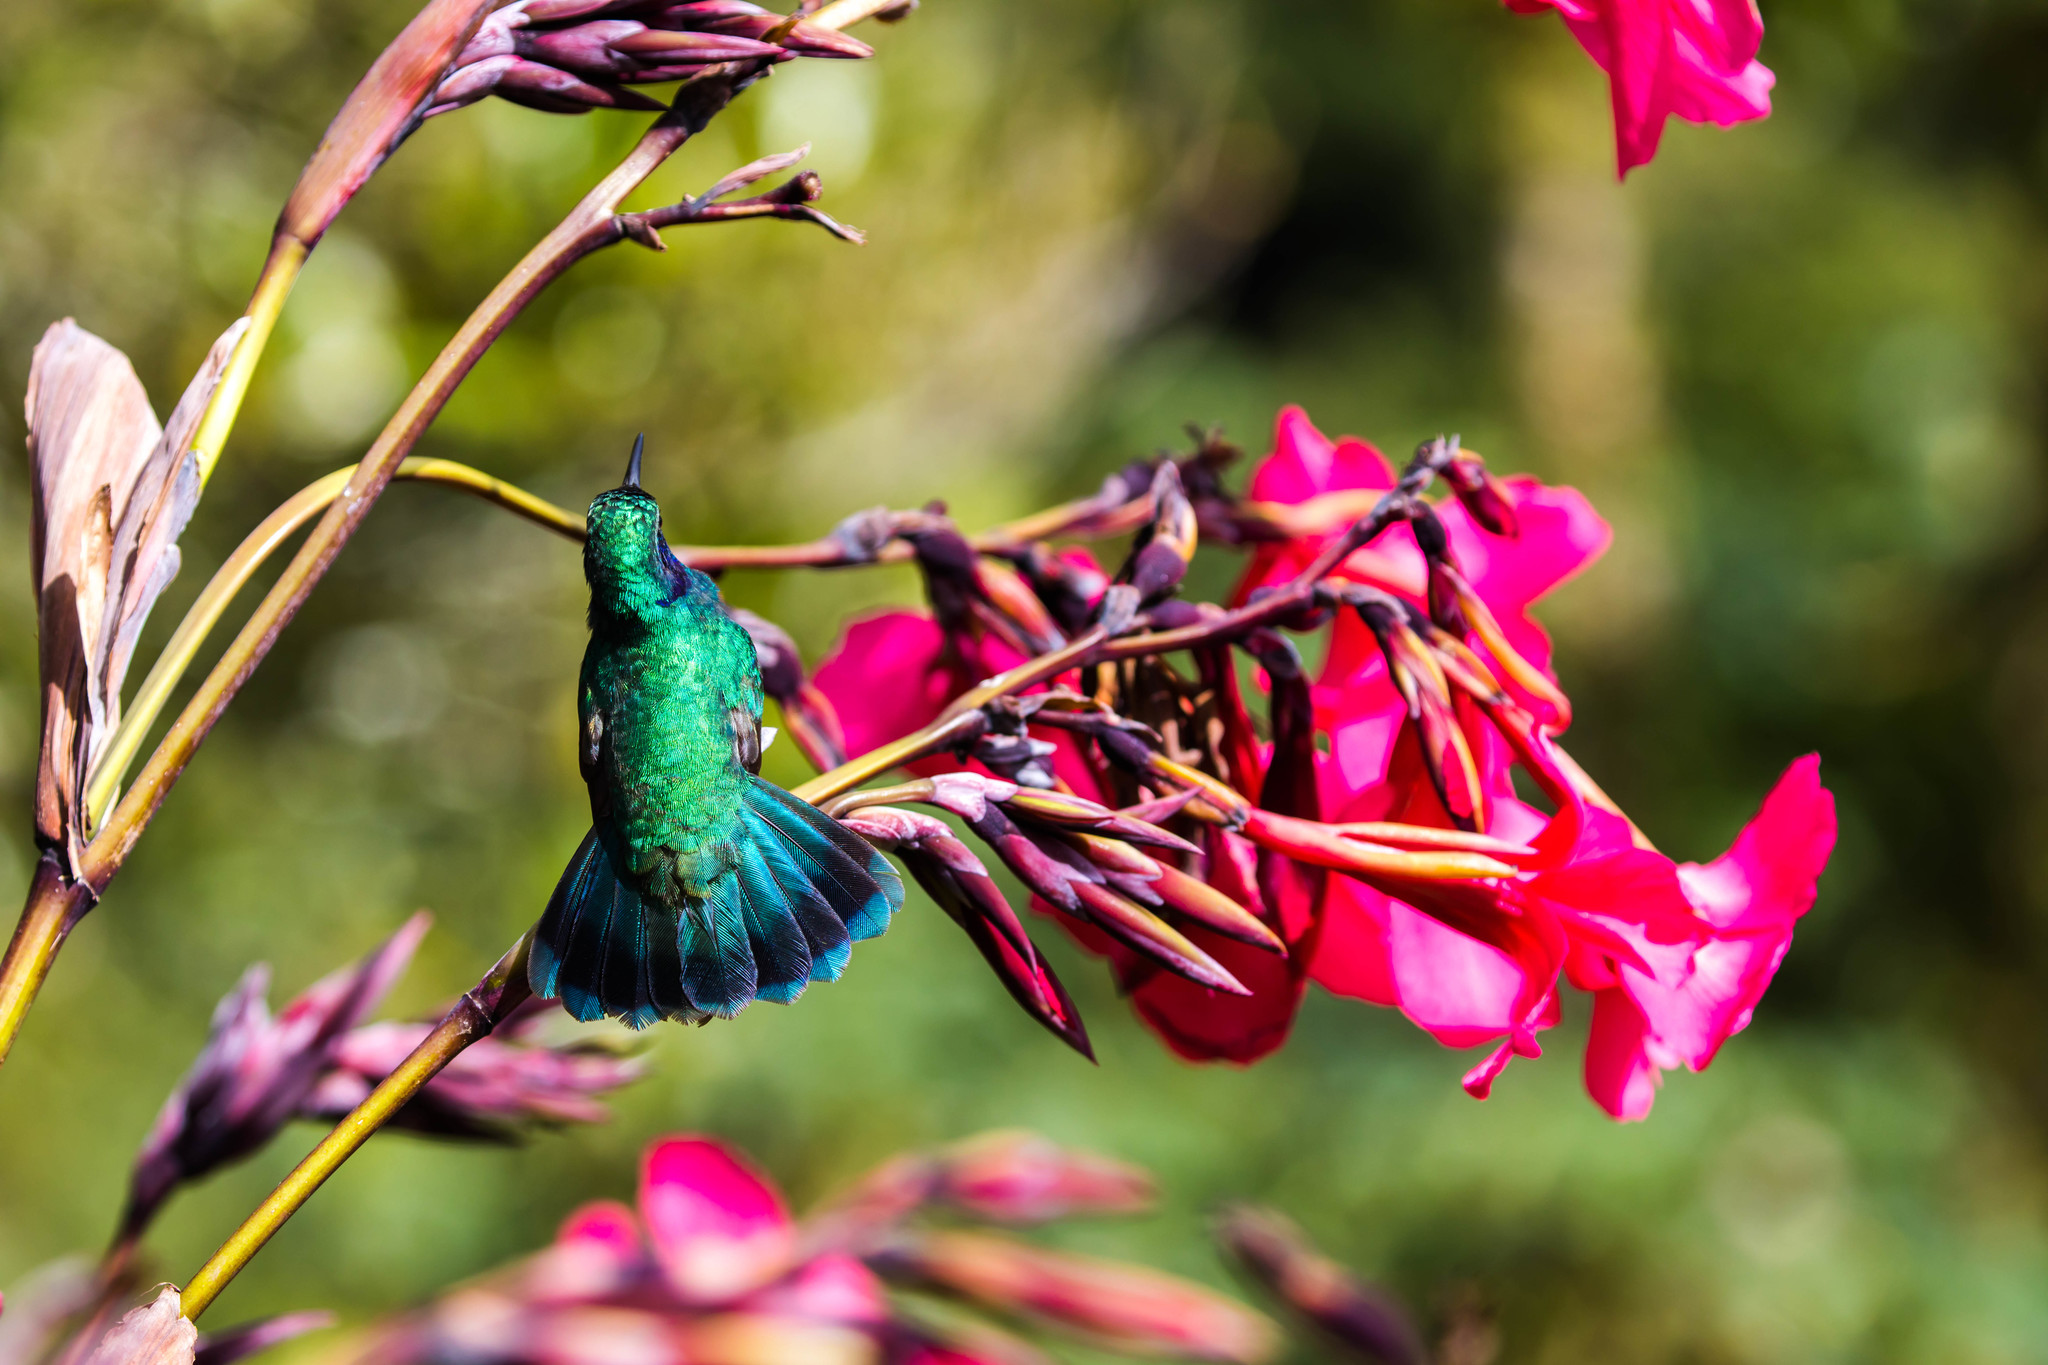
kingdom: Animalia
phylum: Chordata
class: Aves
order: Apodiformes
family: Trochilidae
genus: Colibri
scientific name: Colibri cyanotus
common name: Lesser violetear
